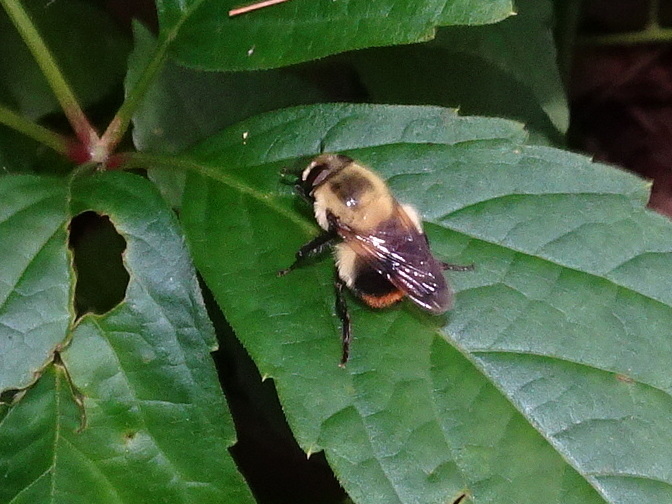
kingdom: Animalia
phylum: Arthropoda
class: Insecta
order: Diptera
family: Syrphidae
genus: Volucella
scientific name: Volucella evecta
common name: Eastern swiftwing
